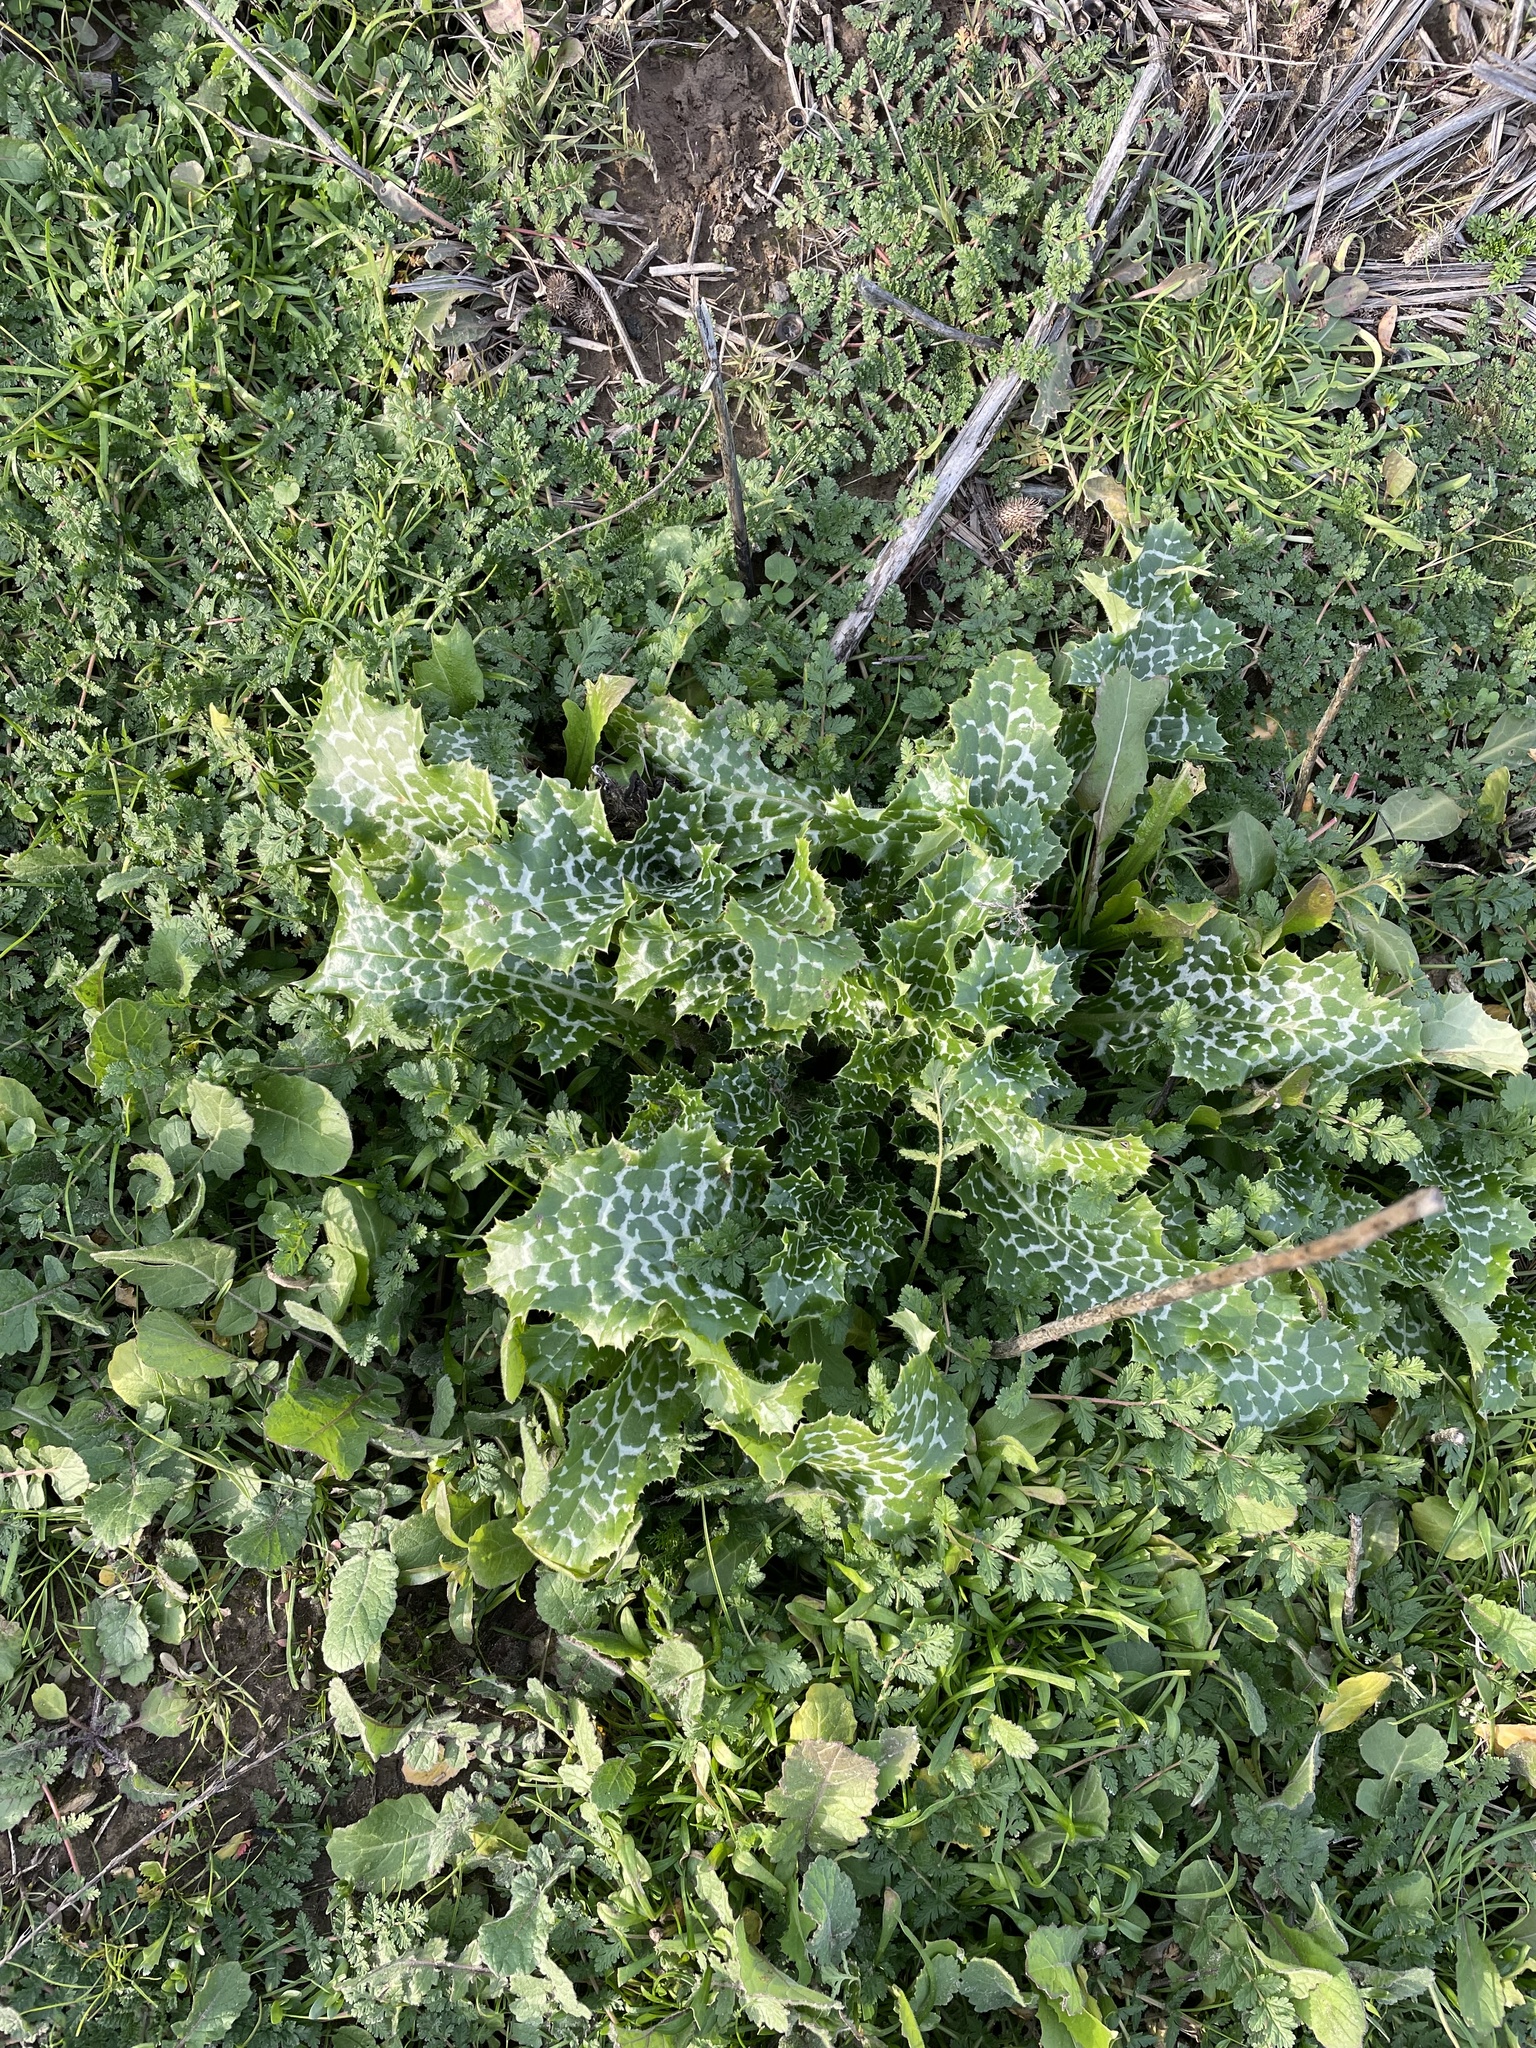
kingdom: Plantae
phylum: Tracheophyta
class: Magnoliopsida
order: Asterales
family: Asteraceae
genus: Silybum
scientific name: Silybum marianum
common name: Milk thistle
